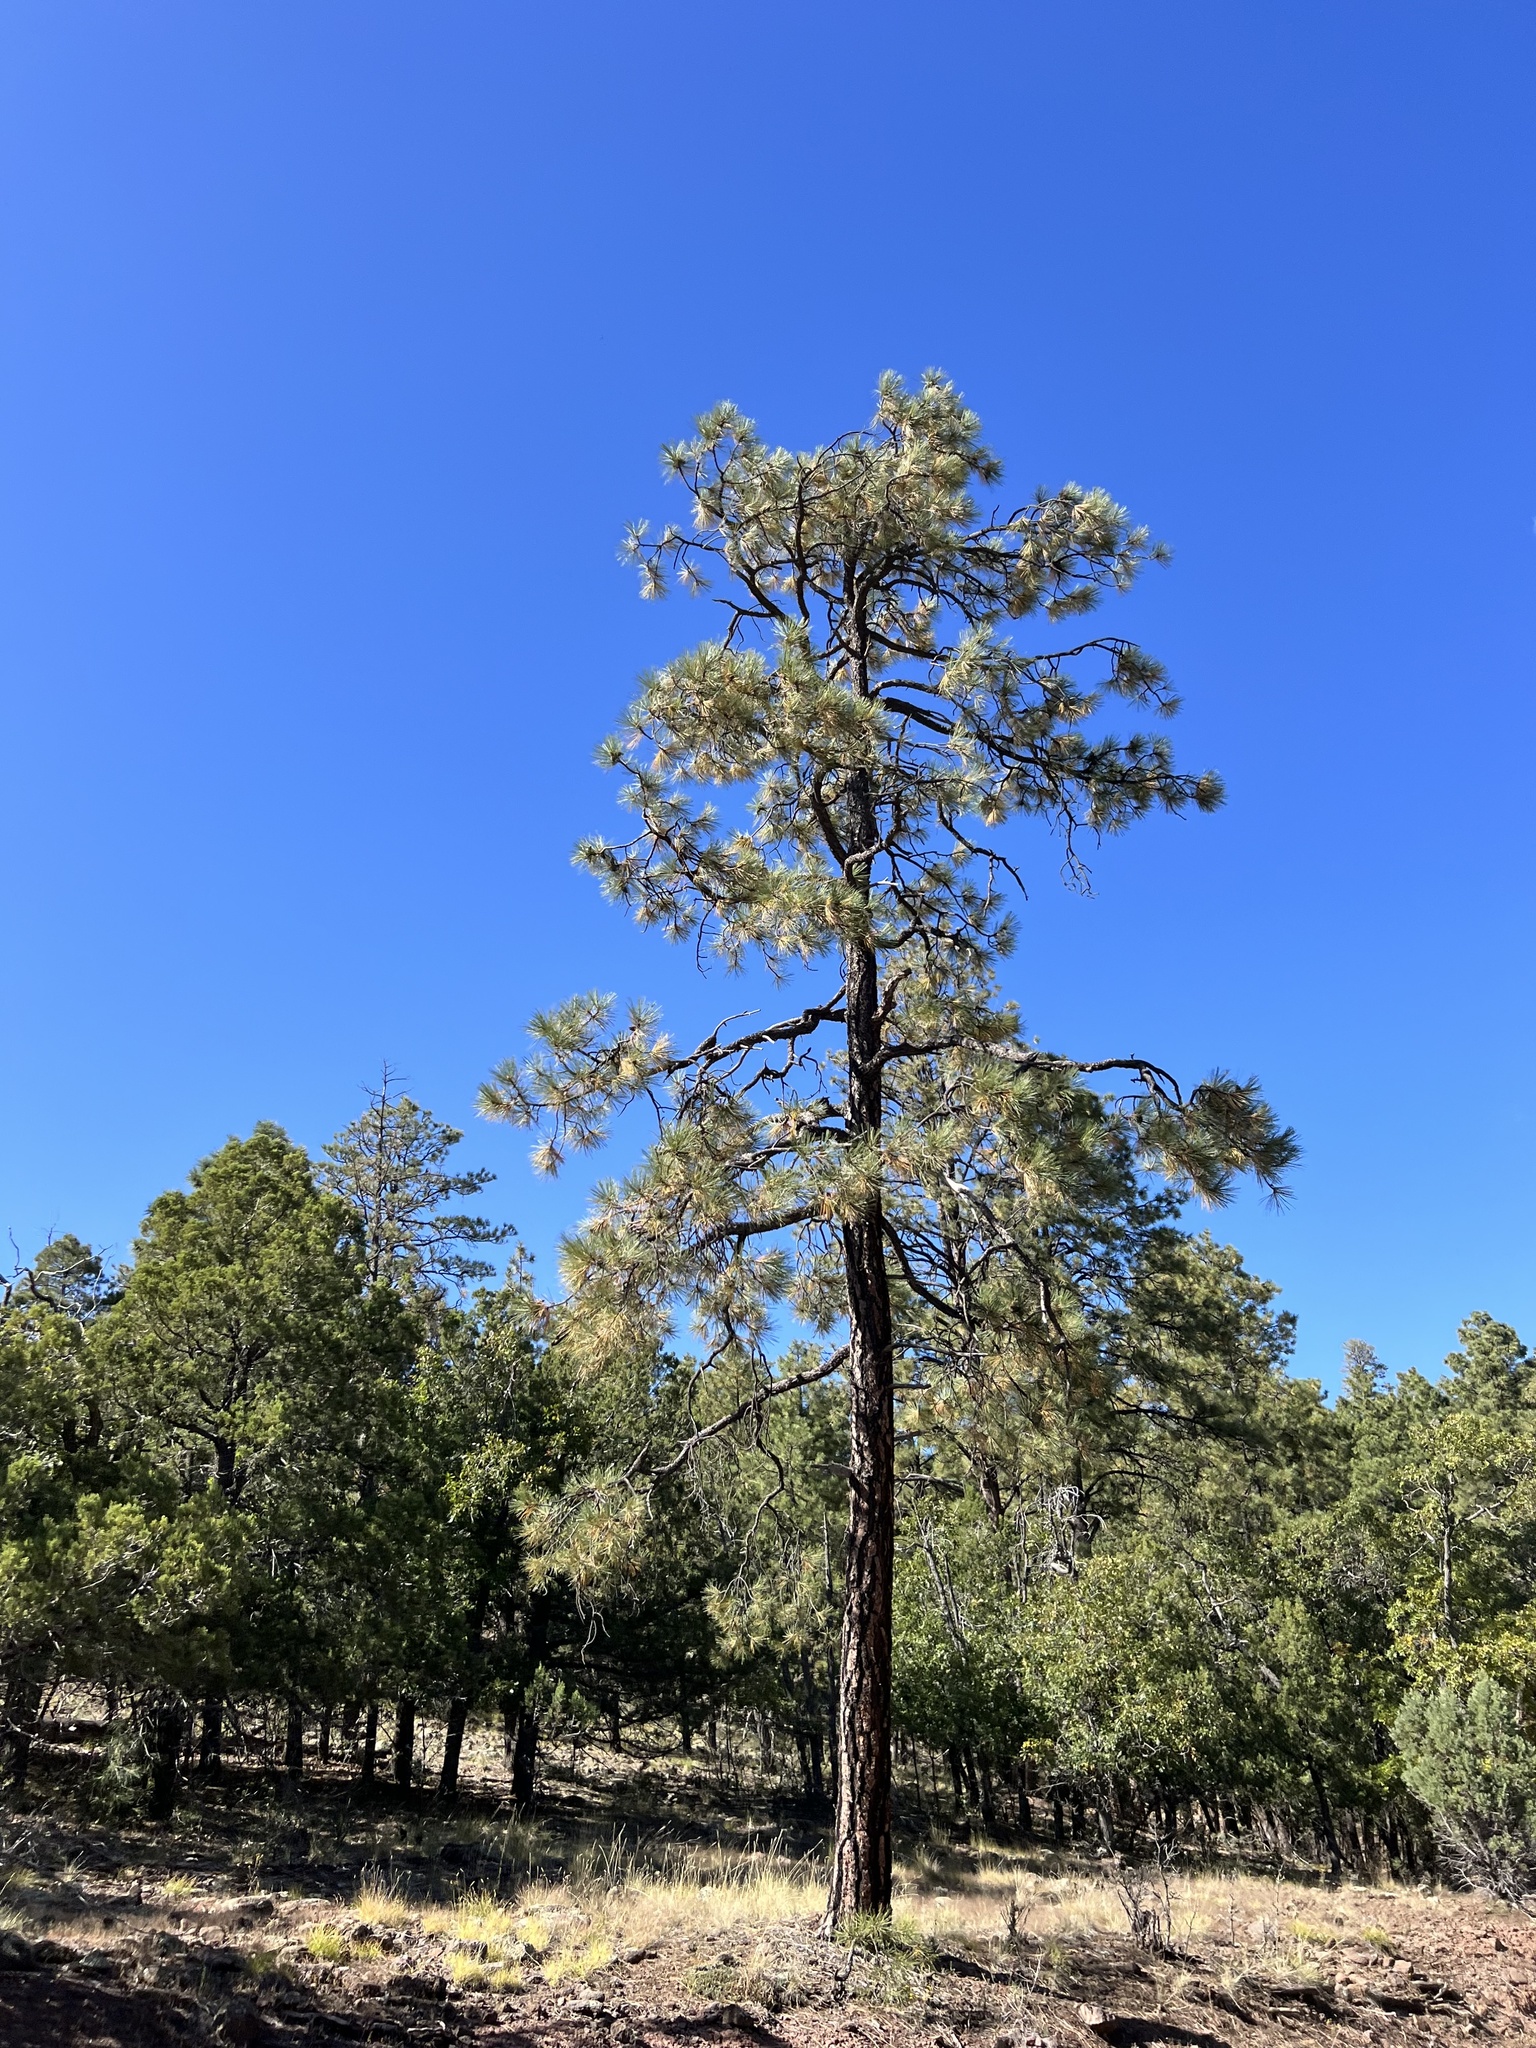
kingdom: Plantae
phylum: Tracheophyta
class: Pinopsida
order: Pinales
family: Pinaceae
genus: Pinus
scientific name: Pinus ponderosa
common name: Western yellow-pine
